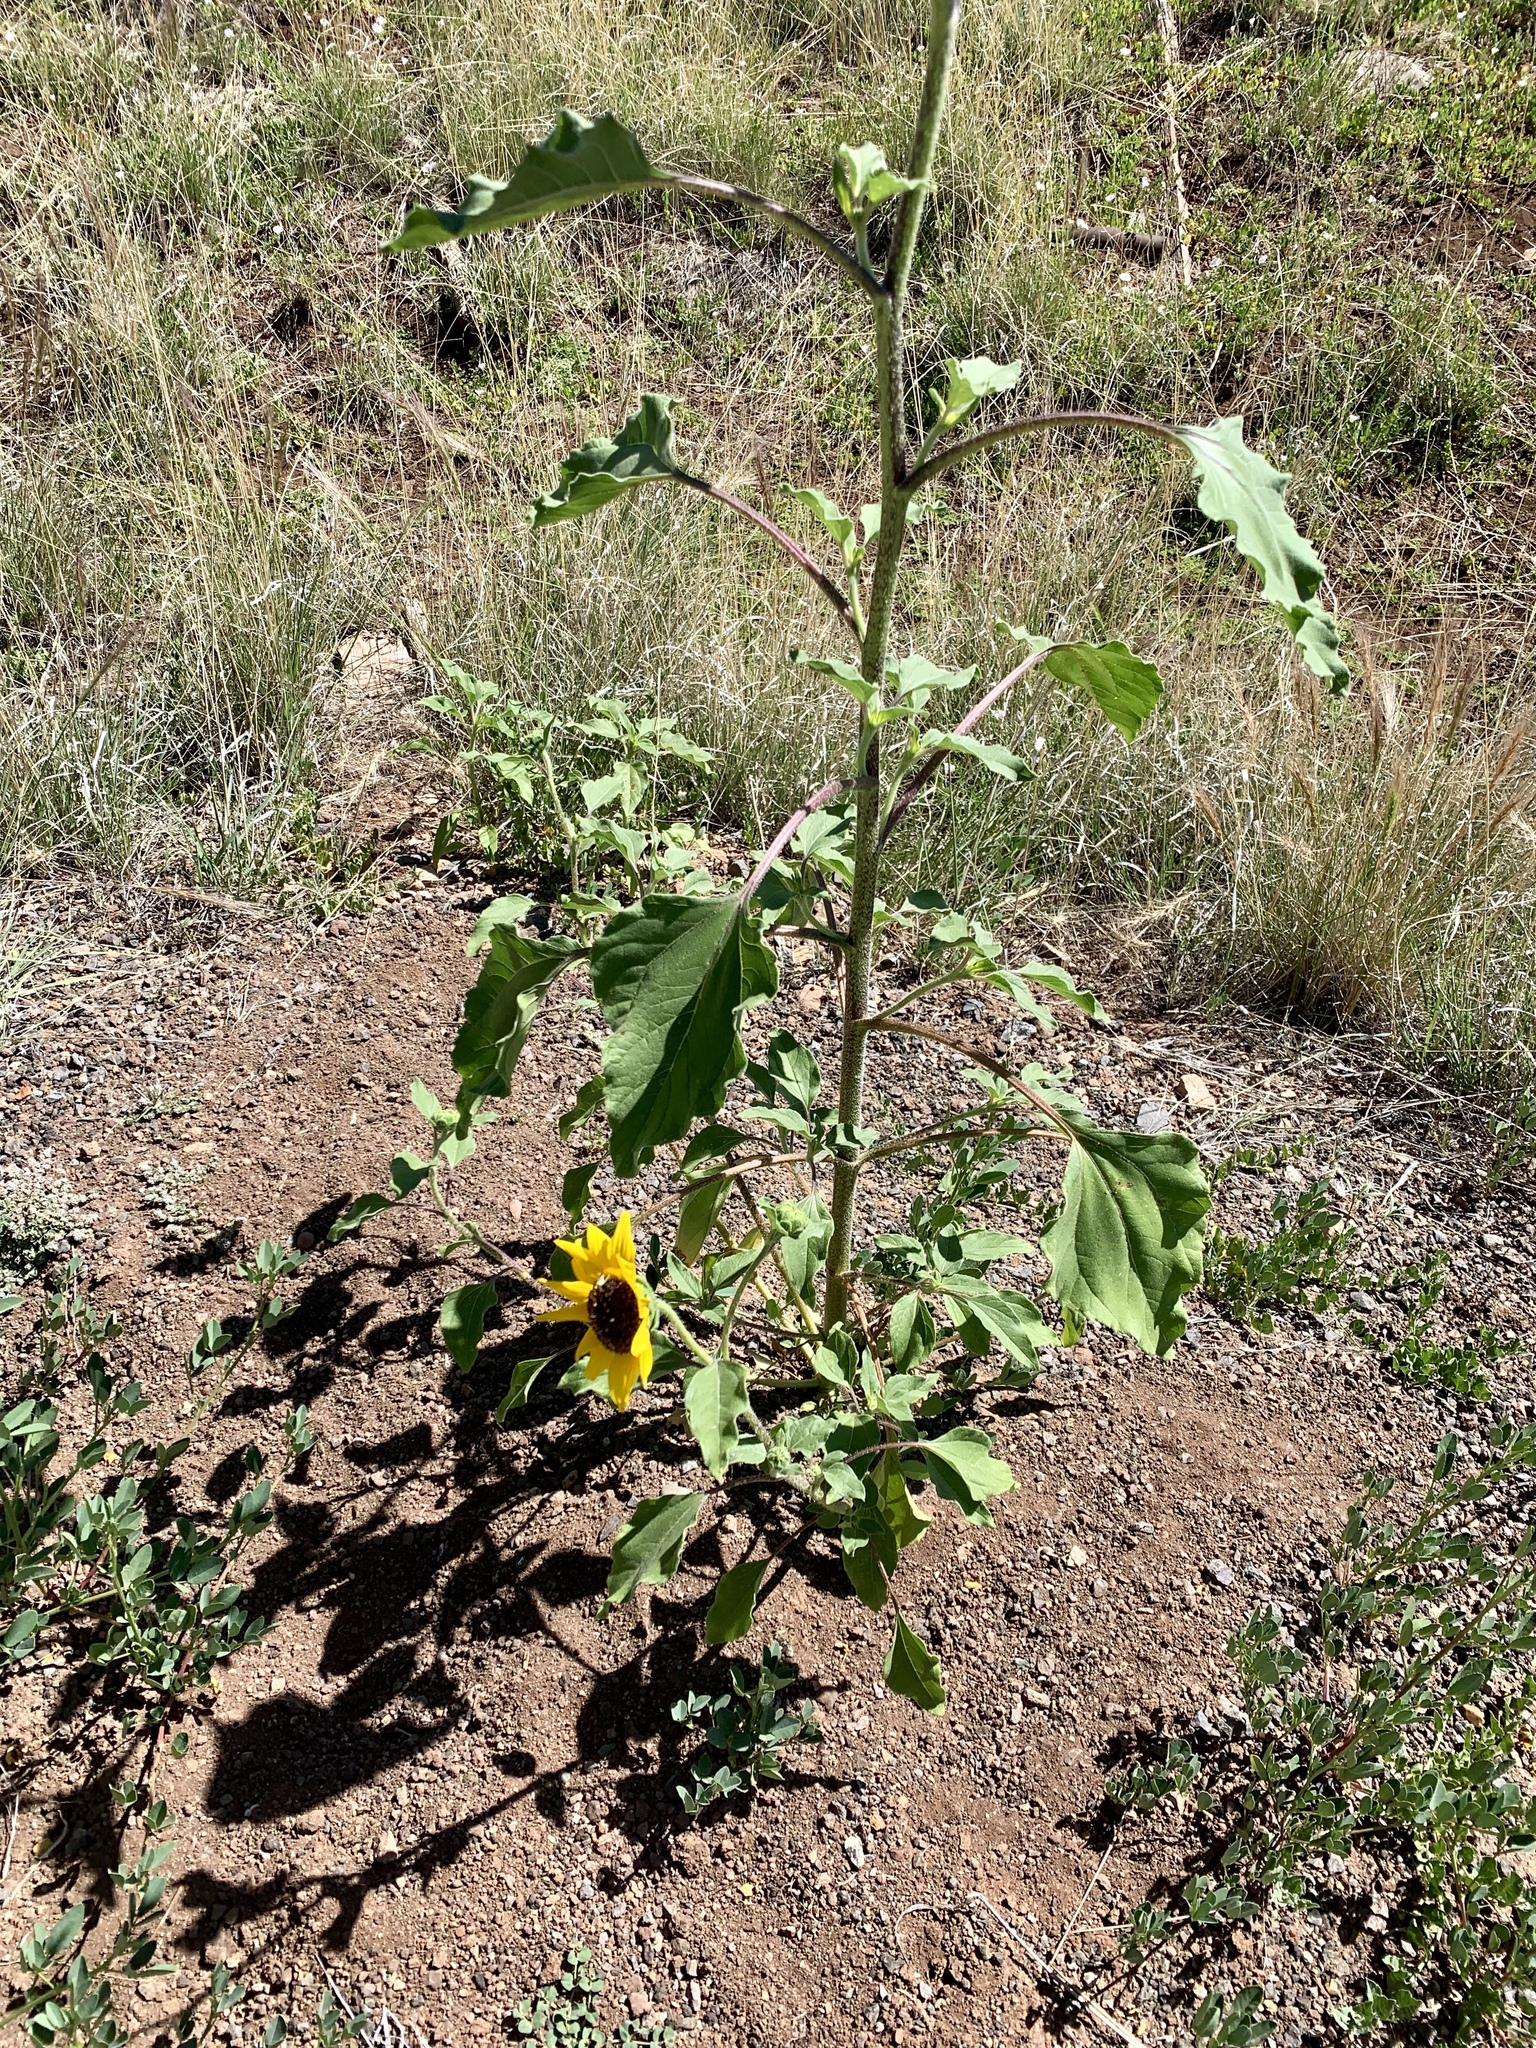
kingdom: Plantae
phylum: Tracheophyta
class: Magnoliopsida
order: Asterales
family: Asteraceae
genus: Helianthus
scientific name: Helianthus annuus
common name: Sunflower
